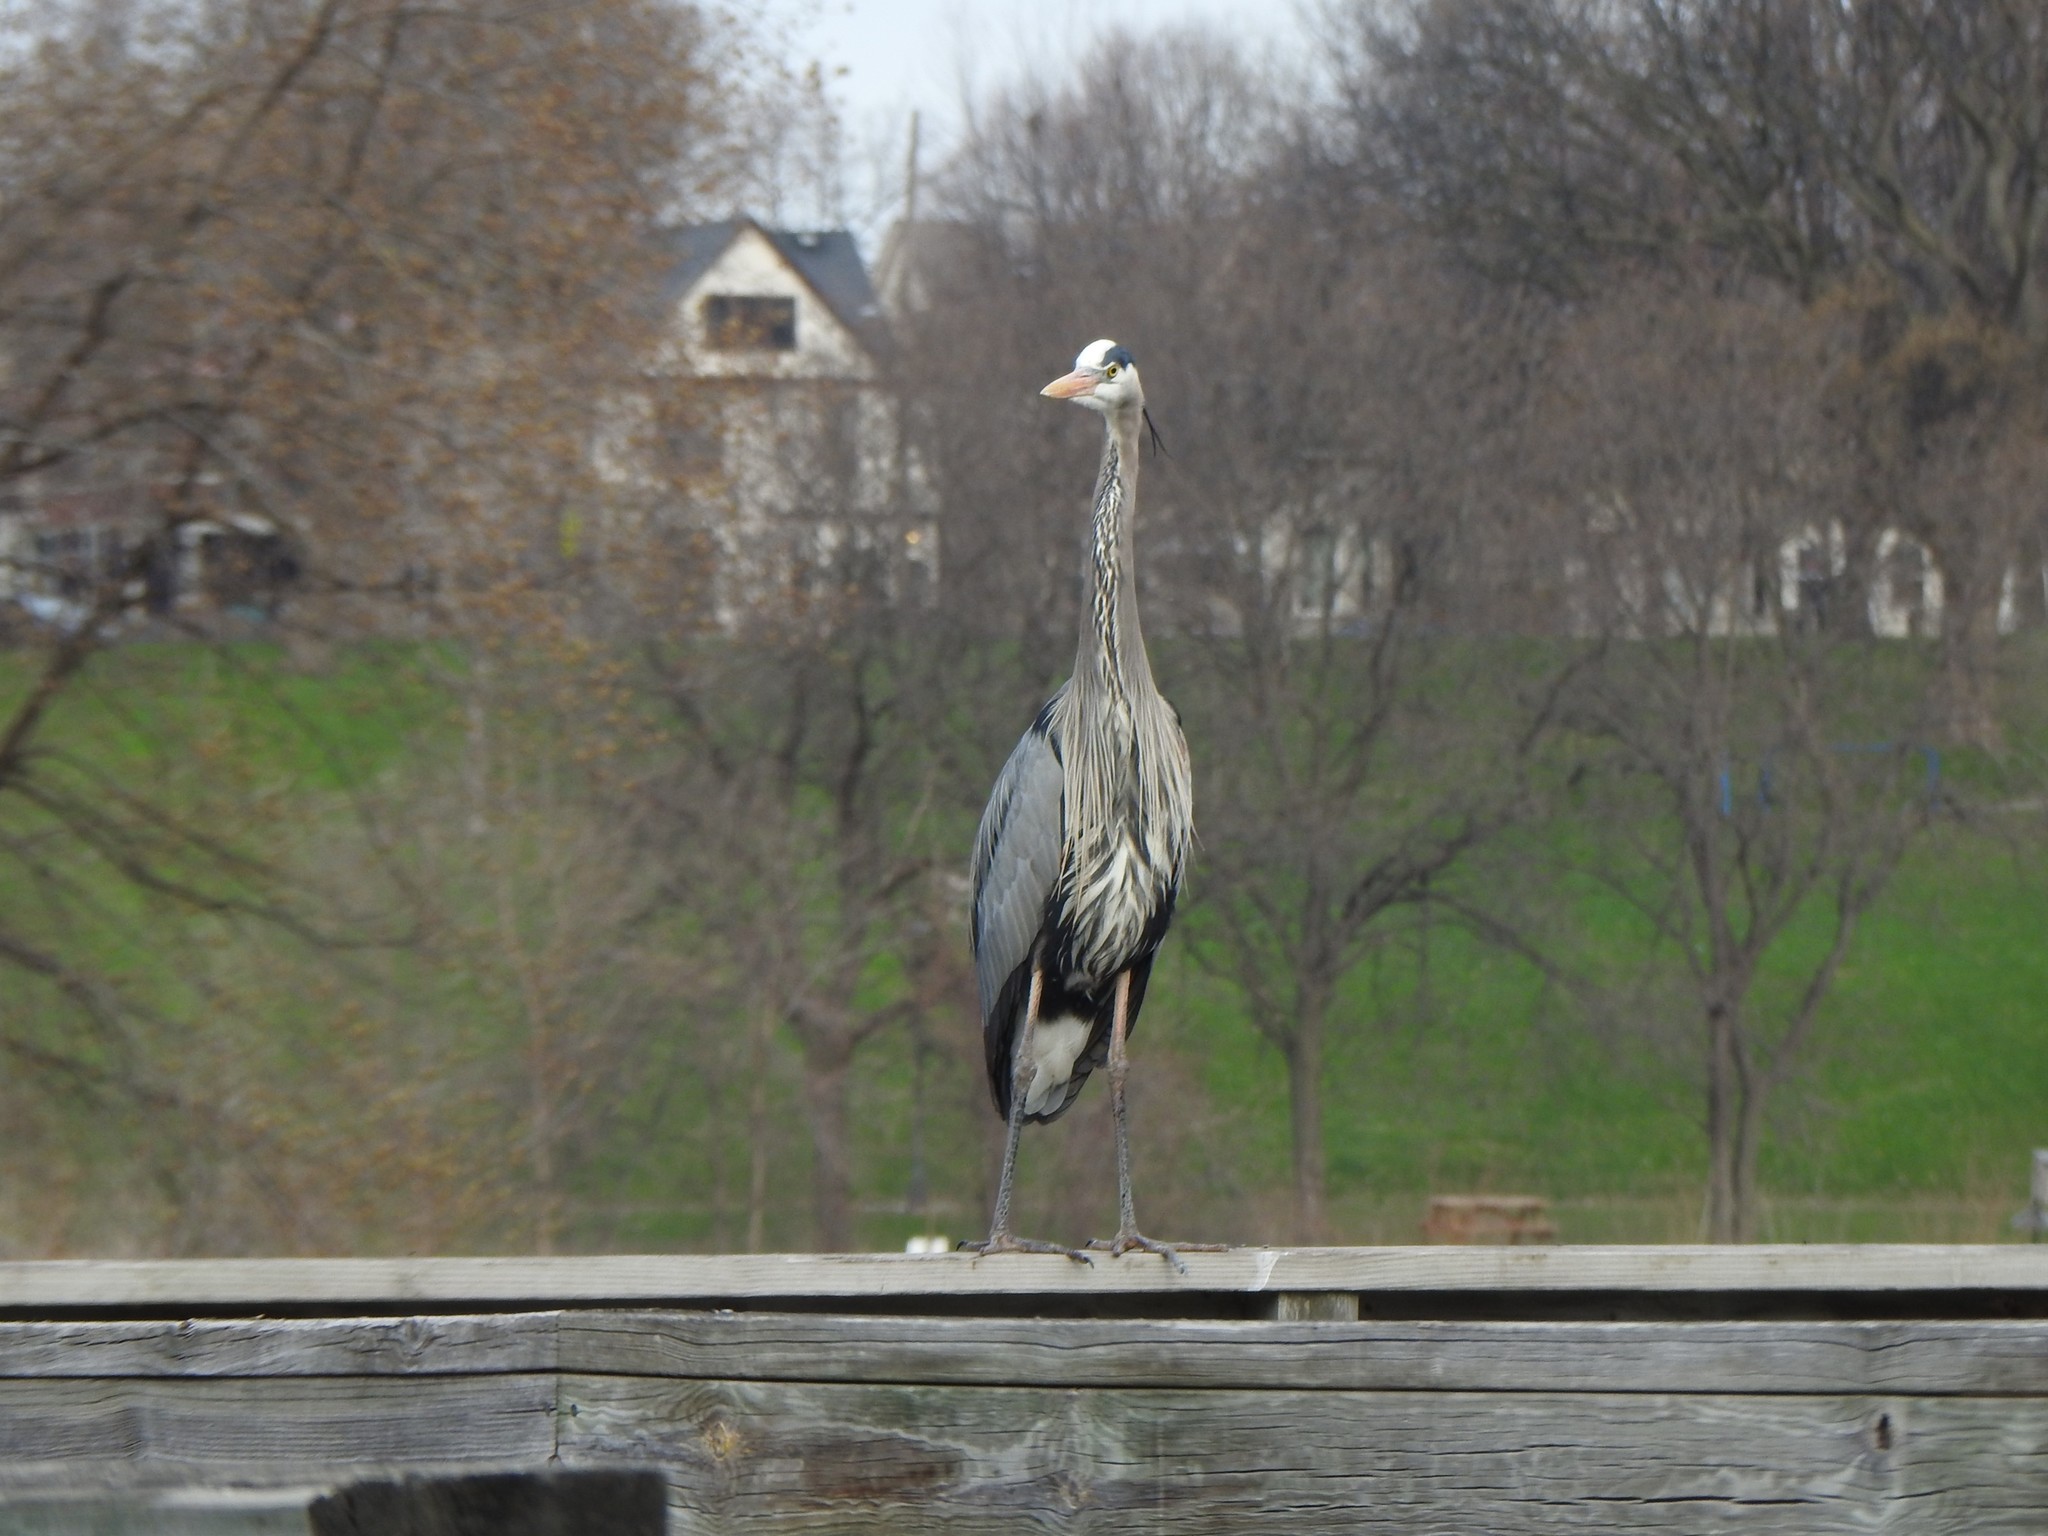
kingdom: Animalia
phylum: Chordata
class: Aves
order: Pelecaniformes
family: Ardeidae
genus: Ardea
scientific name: Ardea herodias
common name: Great blue heron
